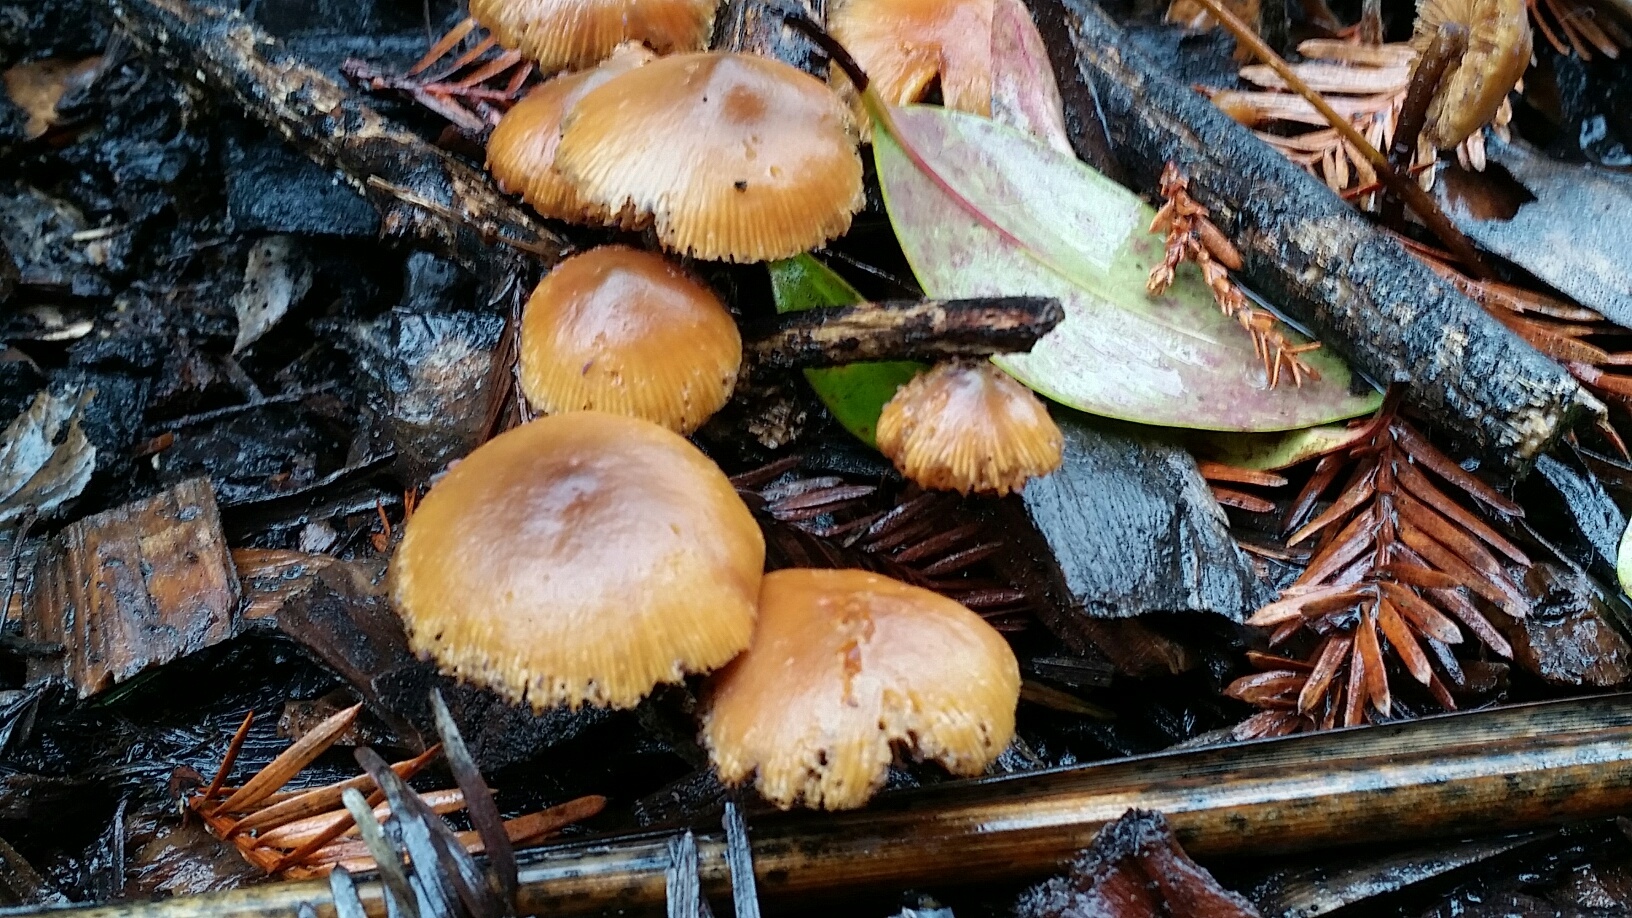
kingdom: Fungi
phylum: Basidiomycota
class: Agaricomycetes
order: Agaricales
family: Hymenogastraceae
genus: Galerina
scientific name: Galerina badipes
